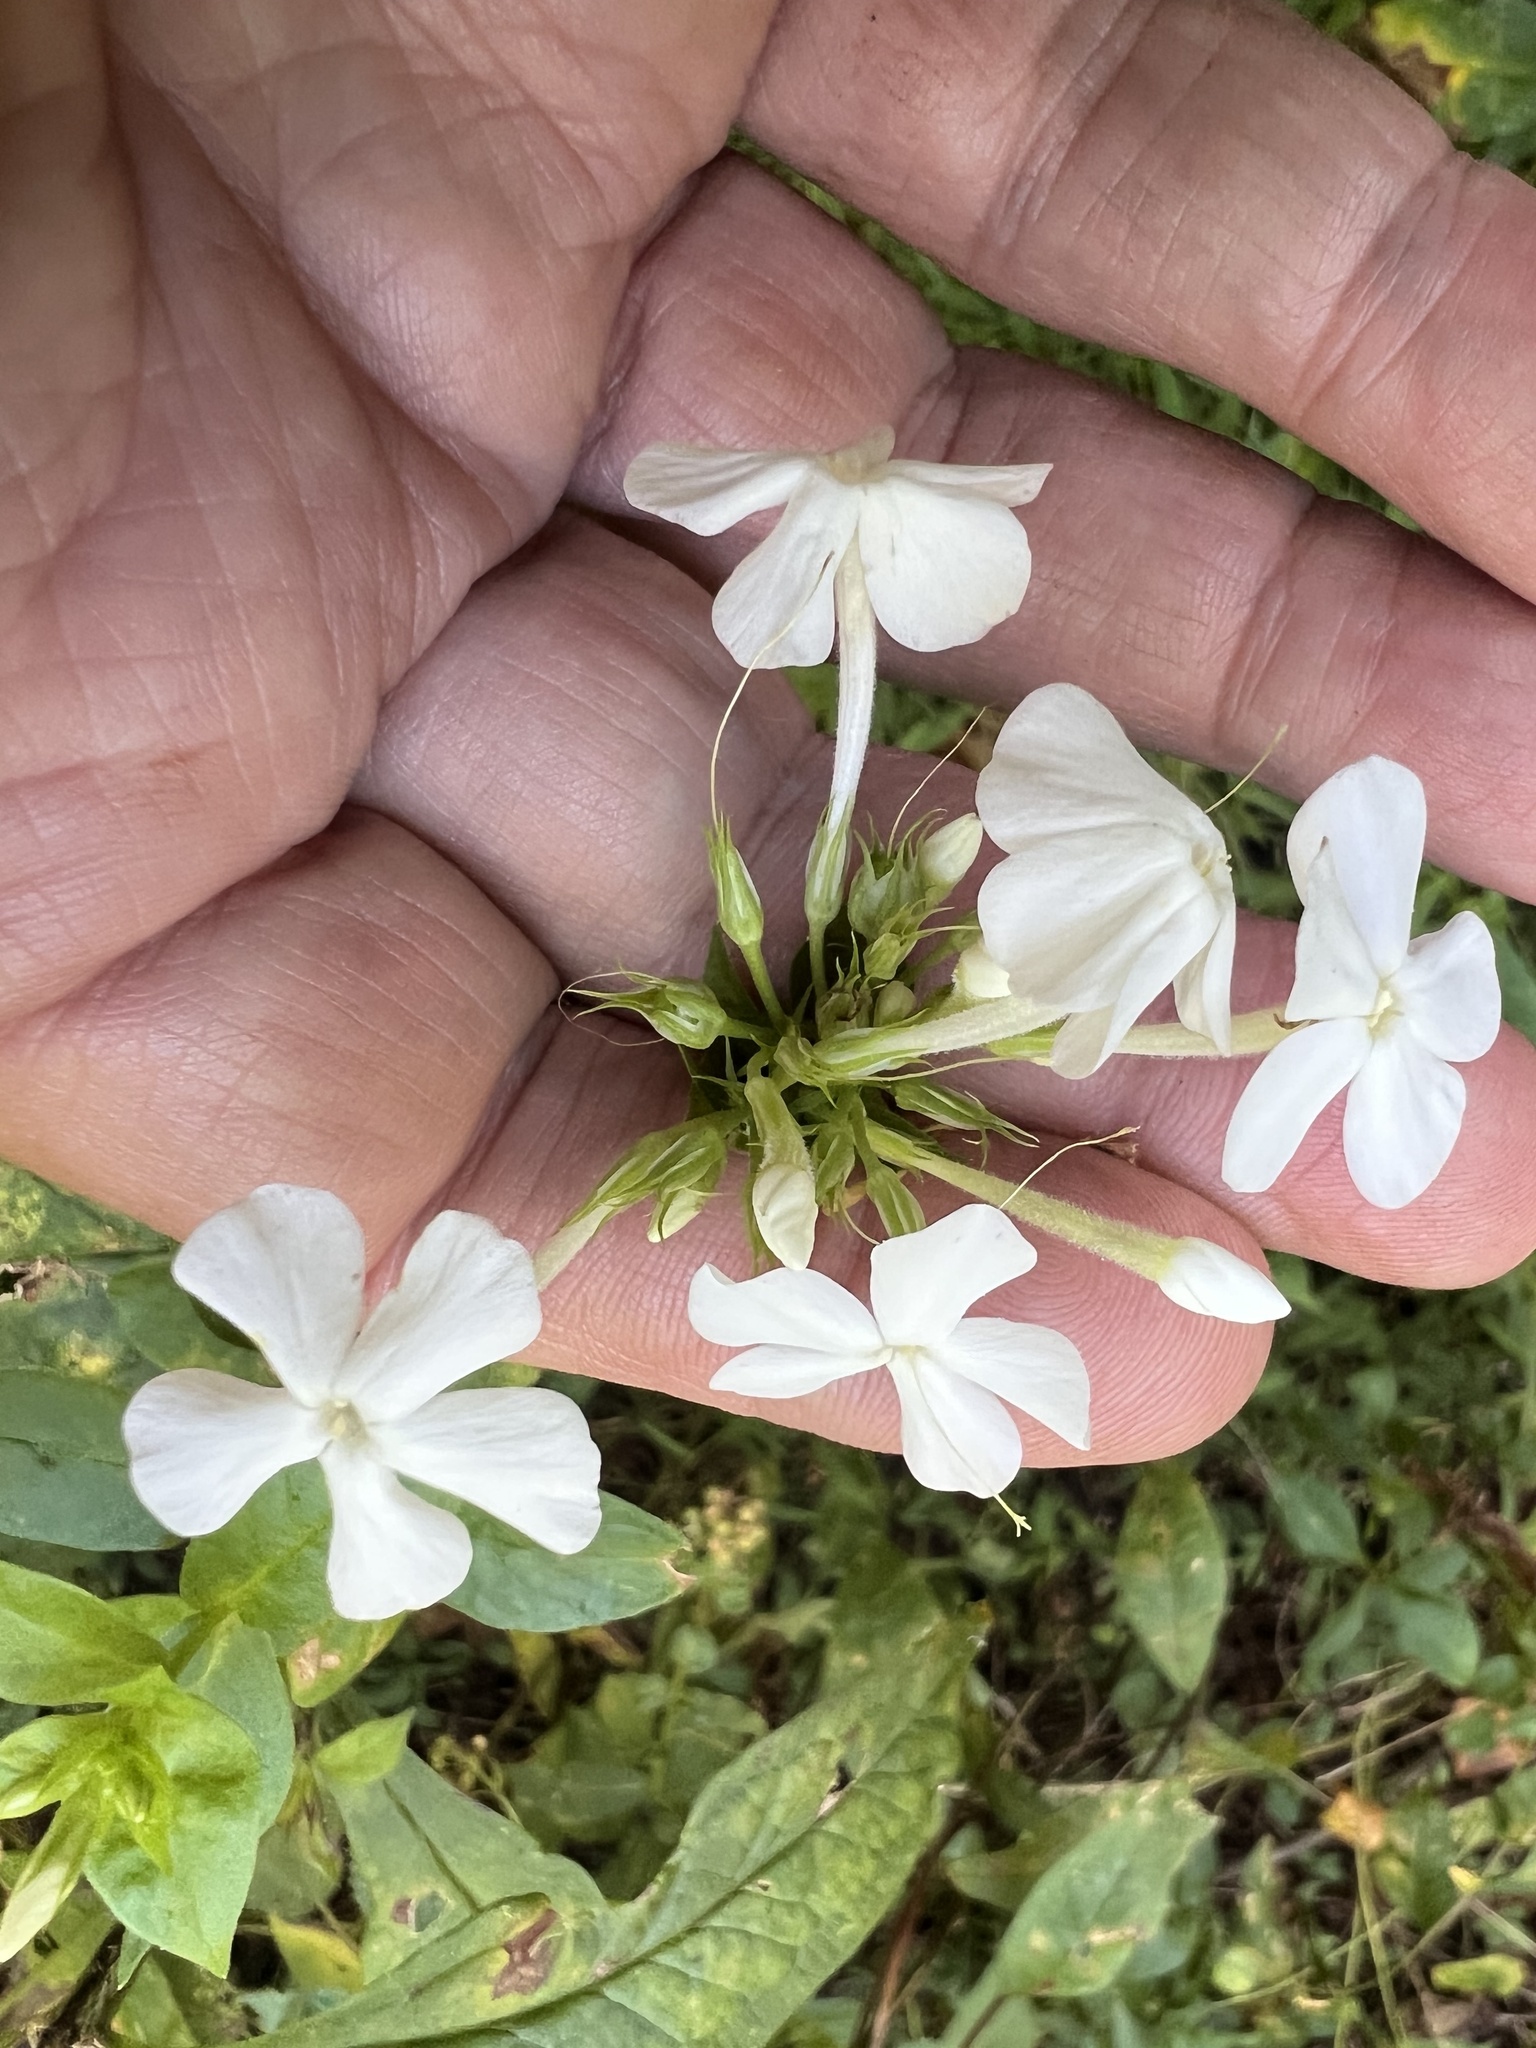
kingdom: Plantae
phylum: Tracheophyta
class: Magnoliopsida
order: Ericales
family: Polemoniaceae
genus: Phlox
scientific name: Phlox paniculata
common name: Fall phlox
